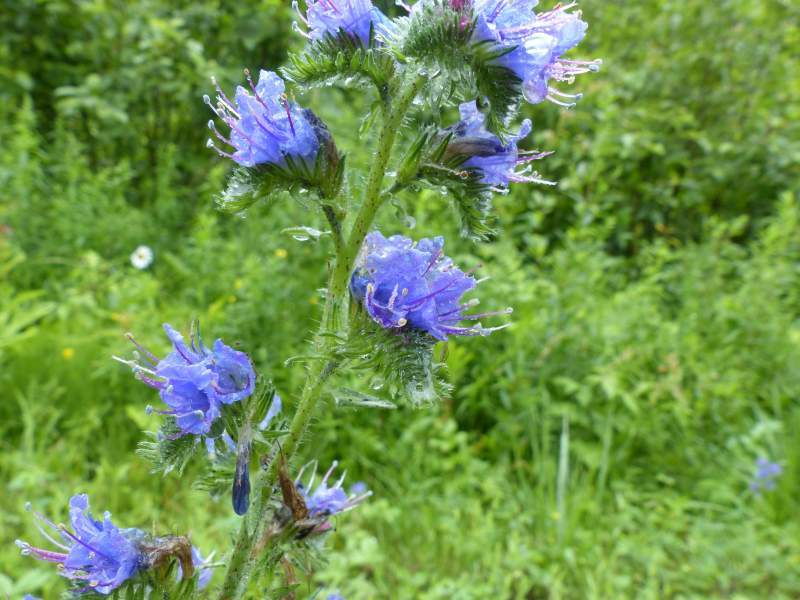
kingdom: Plantae
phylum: Tracheophyta
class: Magnoliopsida
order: Boraginales
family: Boraginaceae
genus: Echium
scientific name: Echium vulgare
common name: Common viper's bugloss
